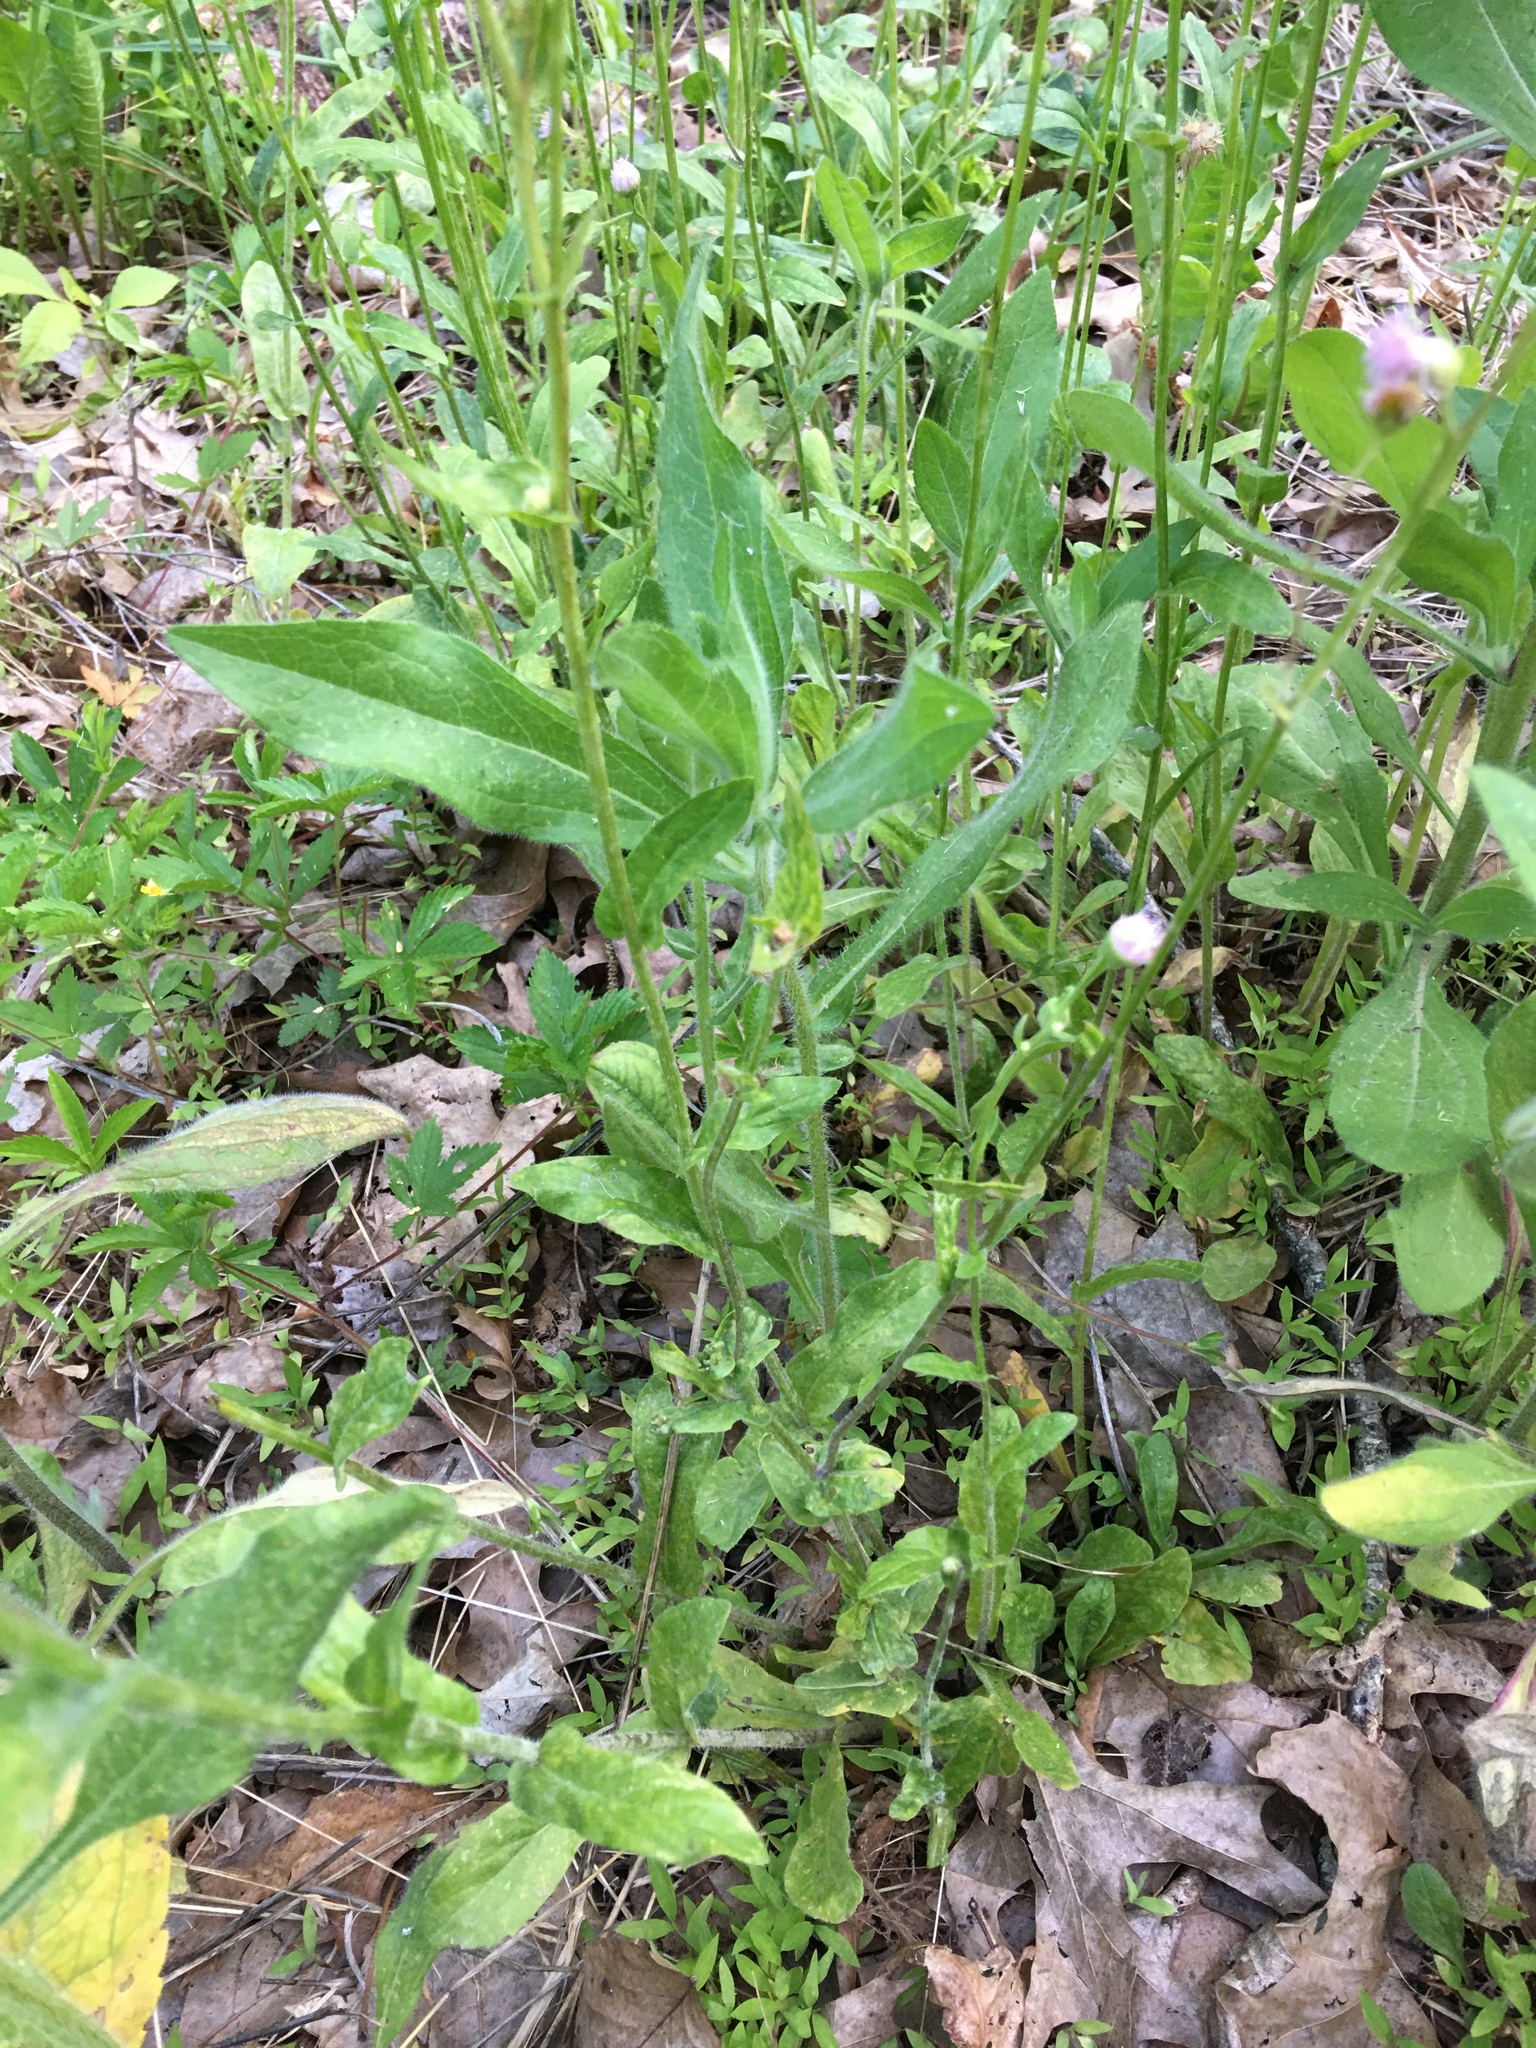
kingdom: Plantae
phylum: Tracheophyta
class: Magnoliopsida
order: Asterales
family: Asteraceae
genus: Erigeron
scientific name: Erigeron philadelphicus
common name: Robin's-plantain
